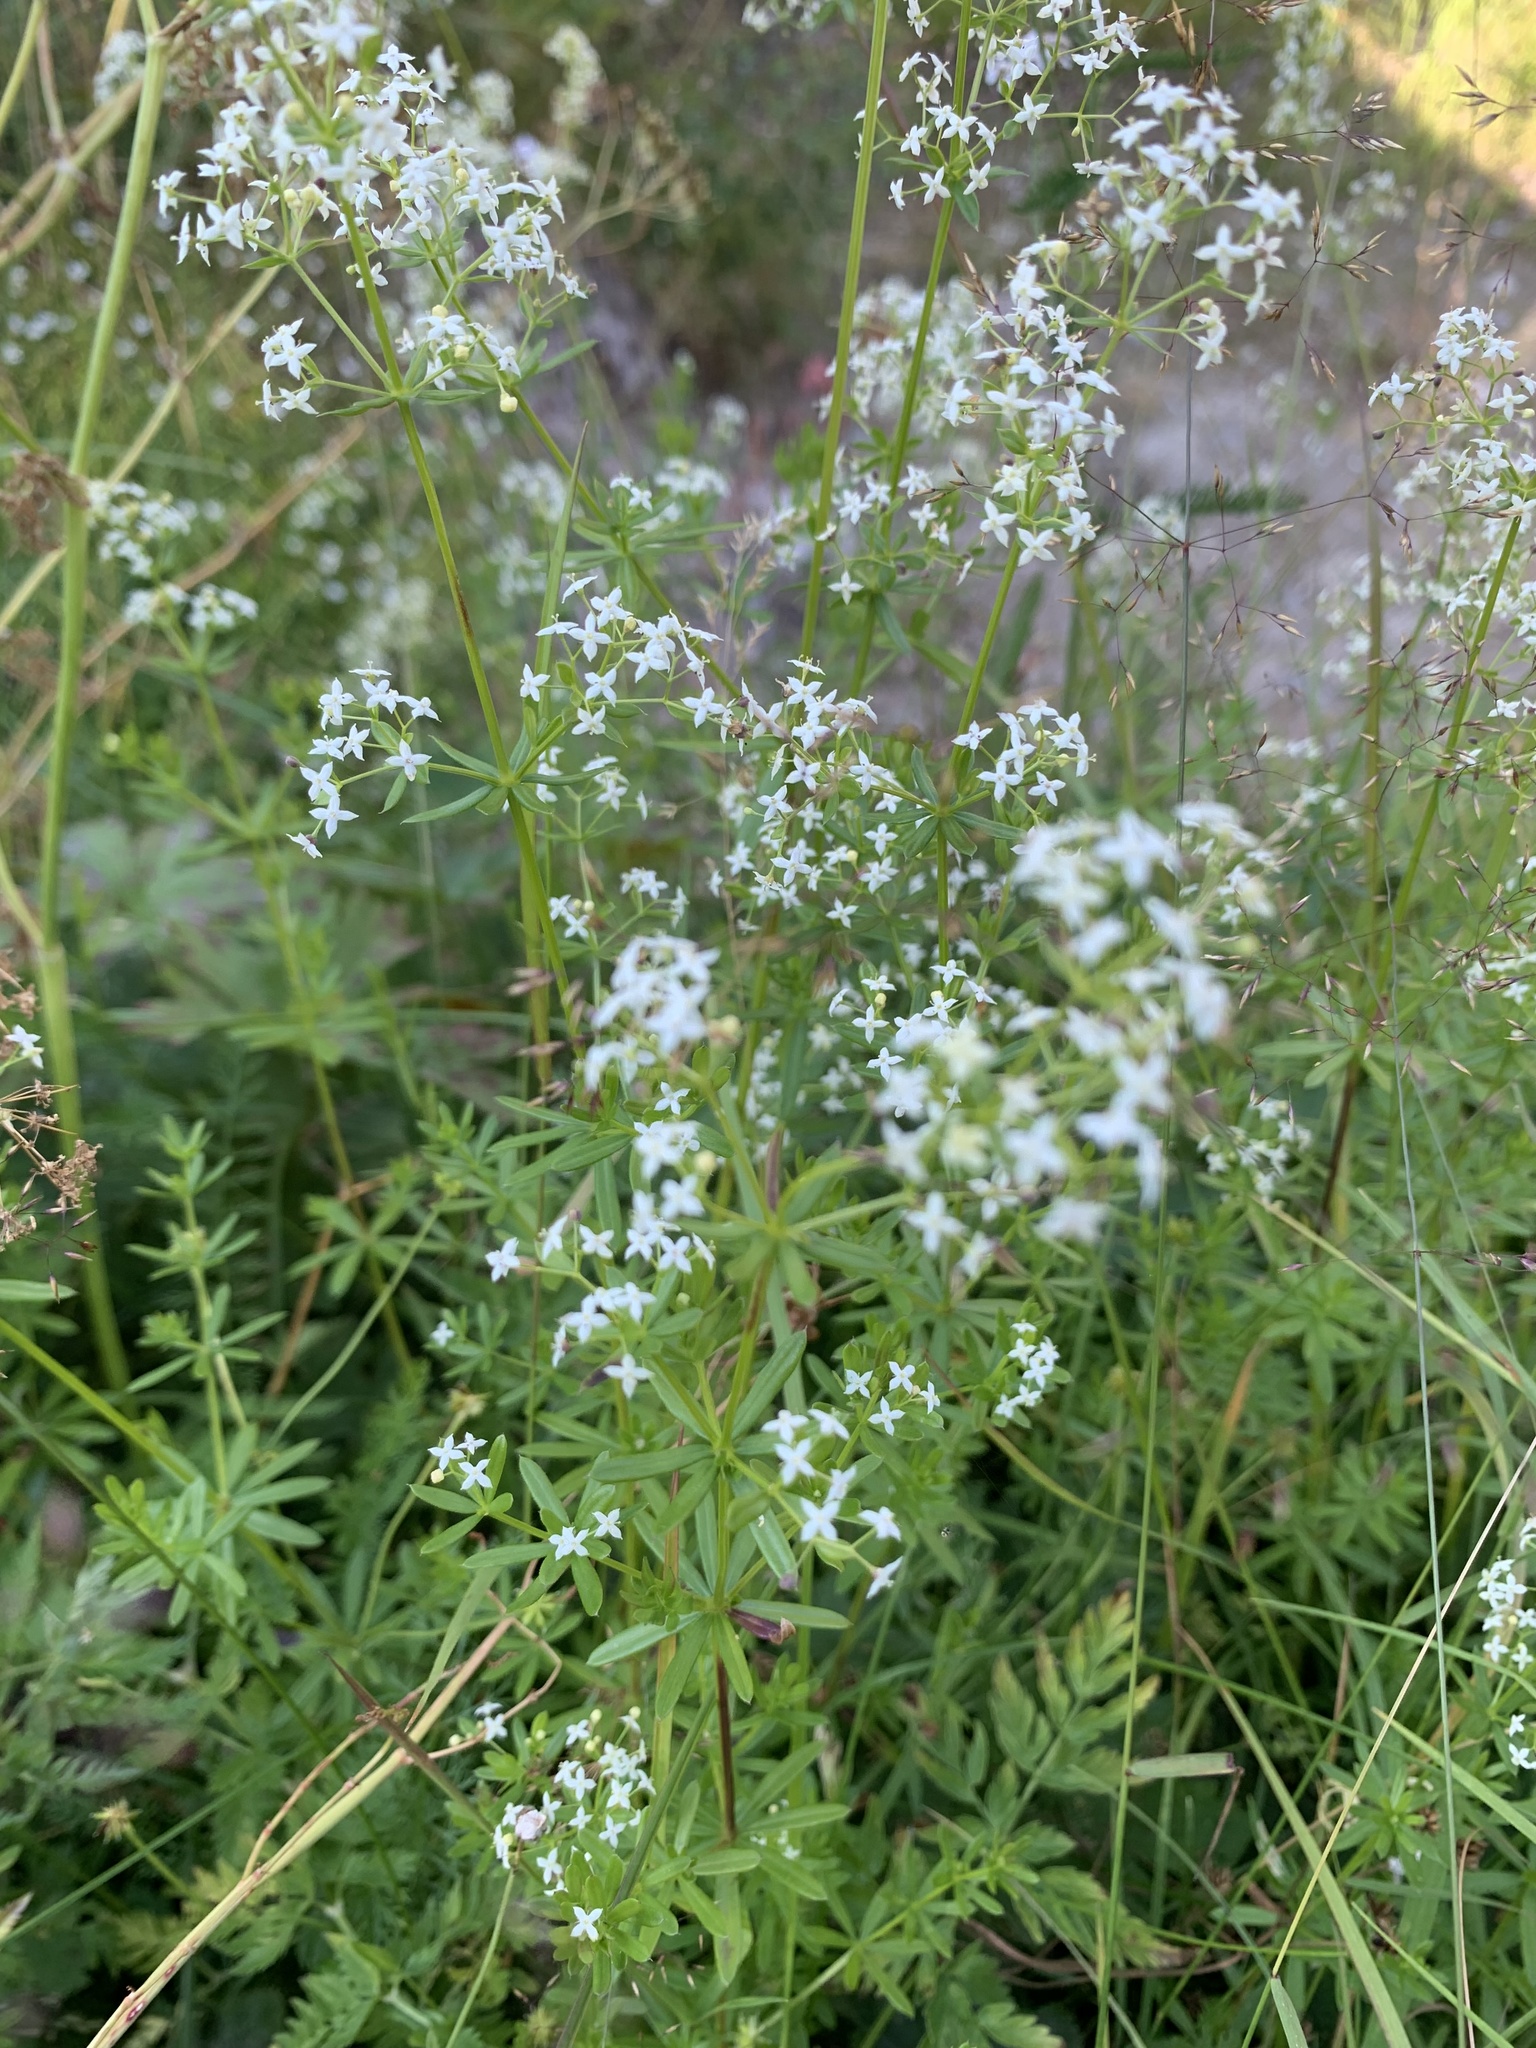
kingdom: Plantae
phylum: Tracheophyta
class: Magnoliopsida
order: Gentianales
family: Rubiaceae
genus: Galium
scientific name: Galium mollugo
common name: Hedge bedstraw
